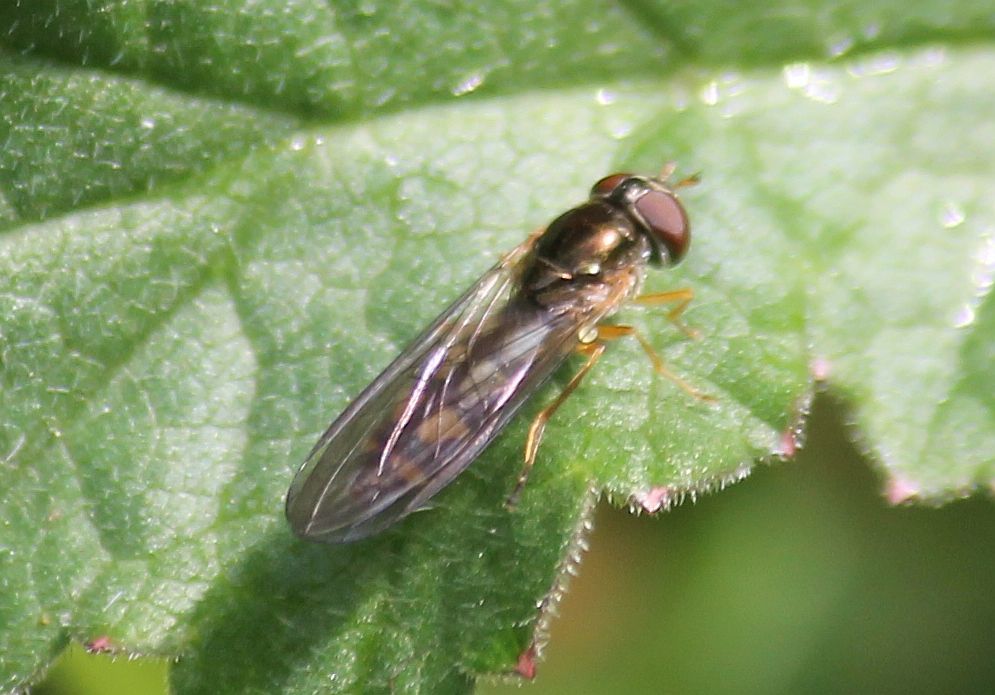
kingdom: Animalia
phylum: Arthropoda
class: Insecta
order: Diptera
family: Syrphidae
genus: Melanostoma
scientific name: Melanostoma scalare
